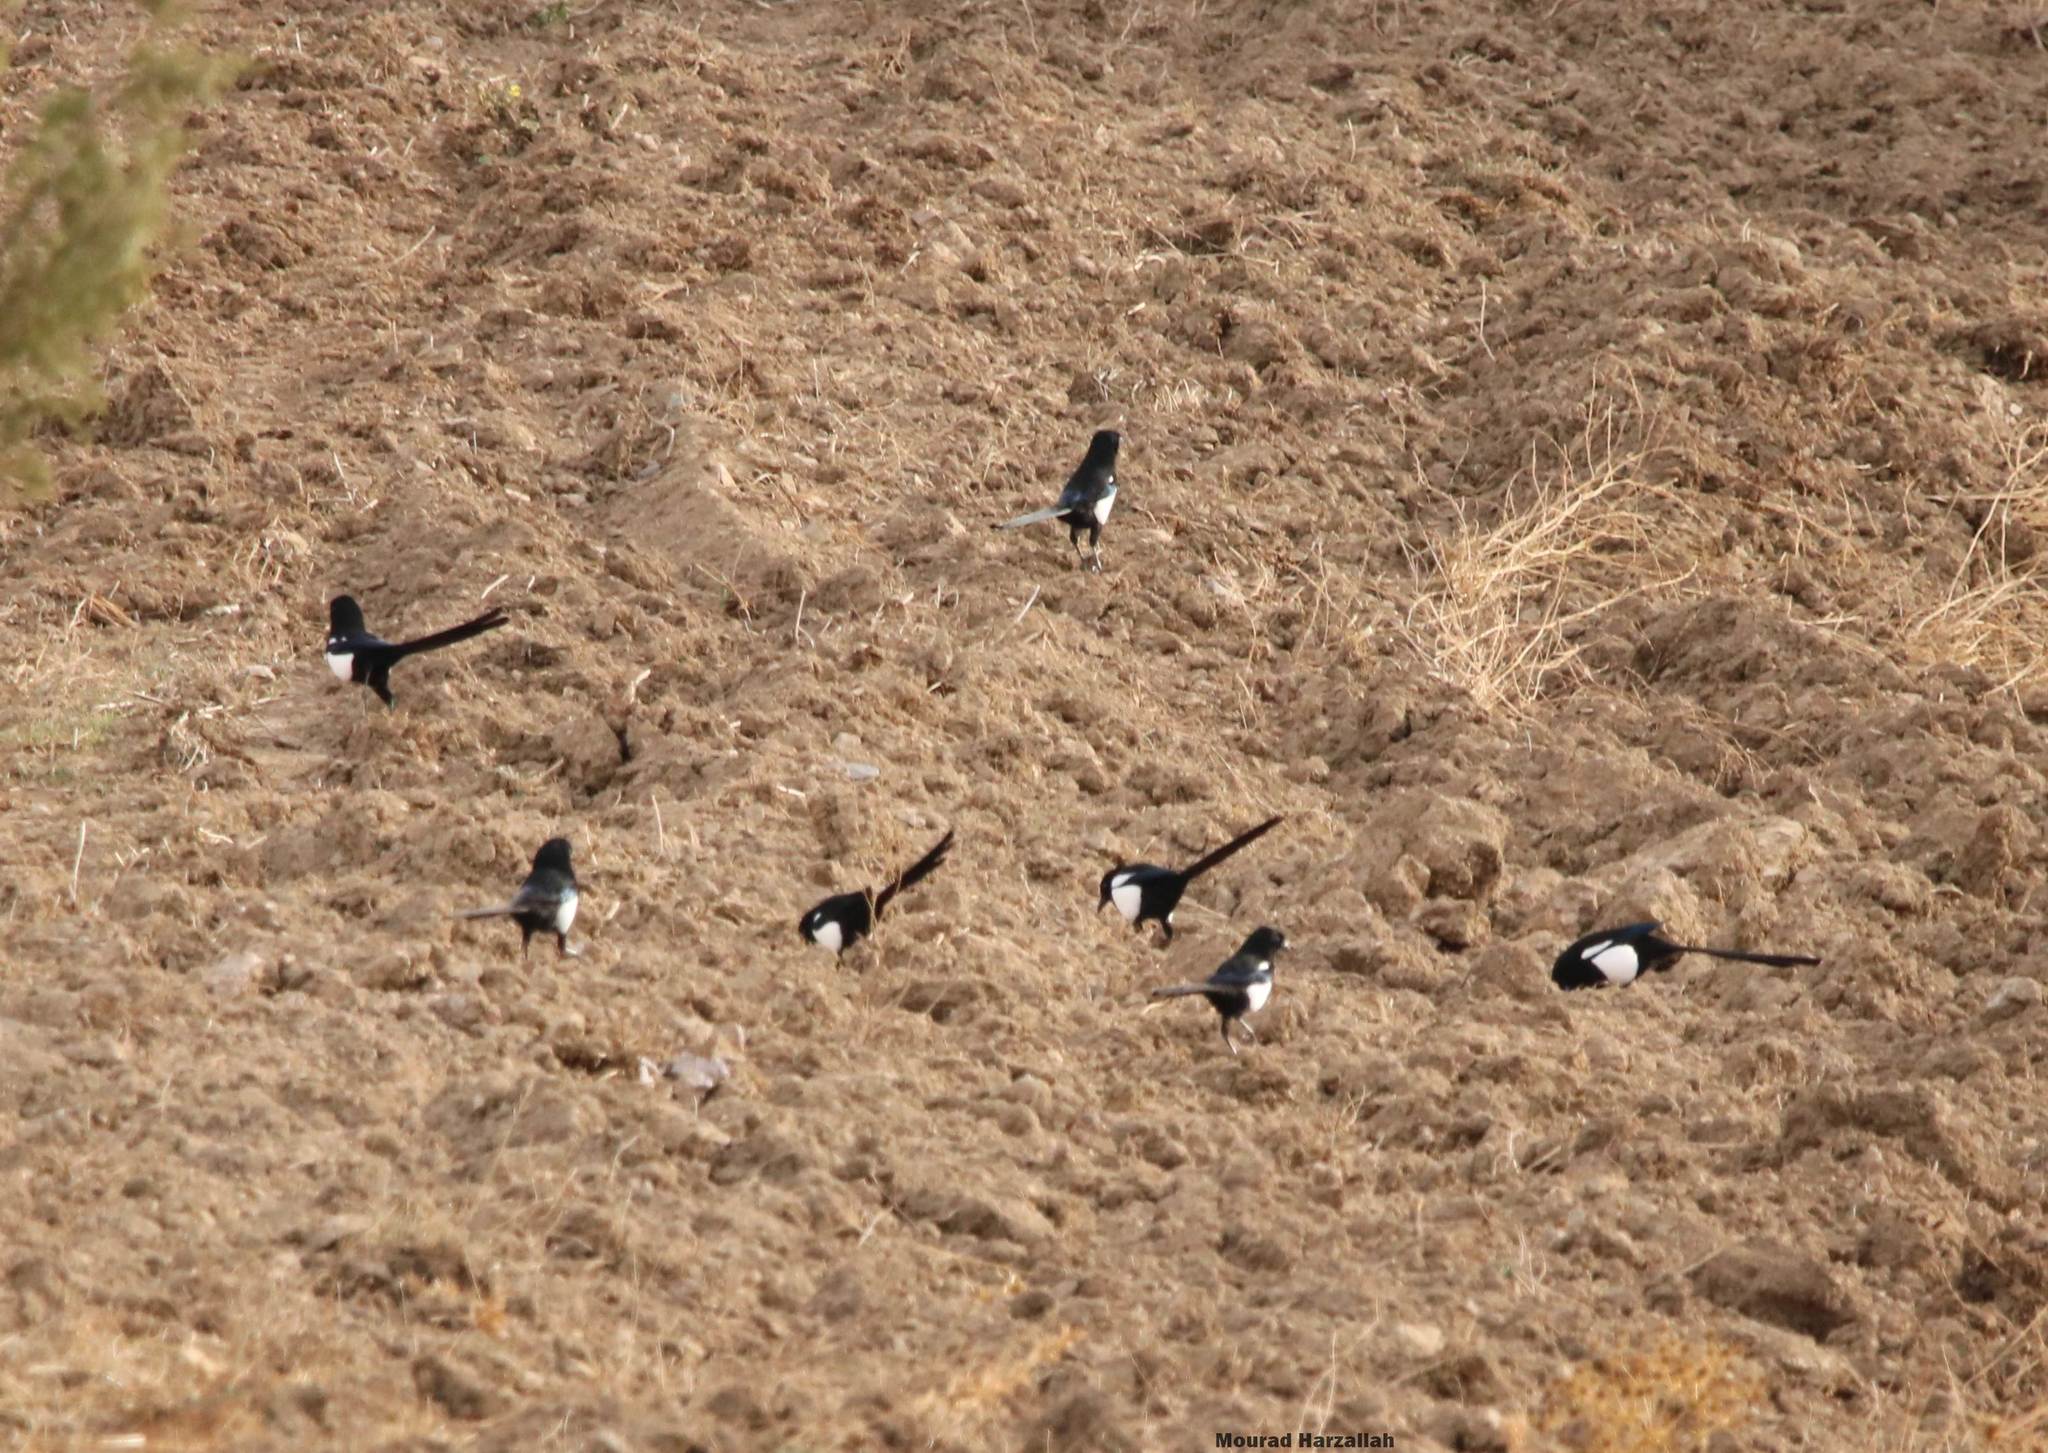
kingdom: Animalia
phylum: Chordata
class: Aves
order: Passeriformes
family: Corvidae
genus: Pica
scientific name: Pica mauritanica
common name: Maghreb magpie
